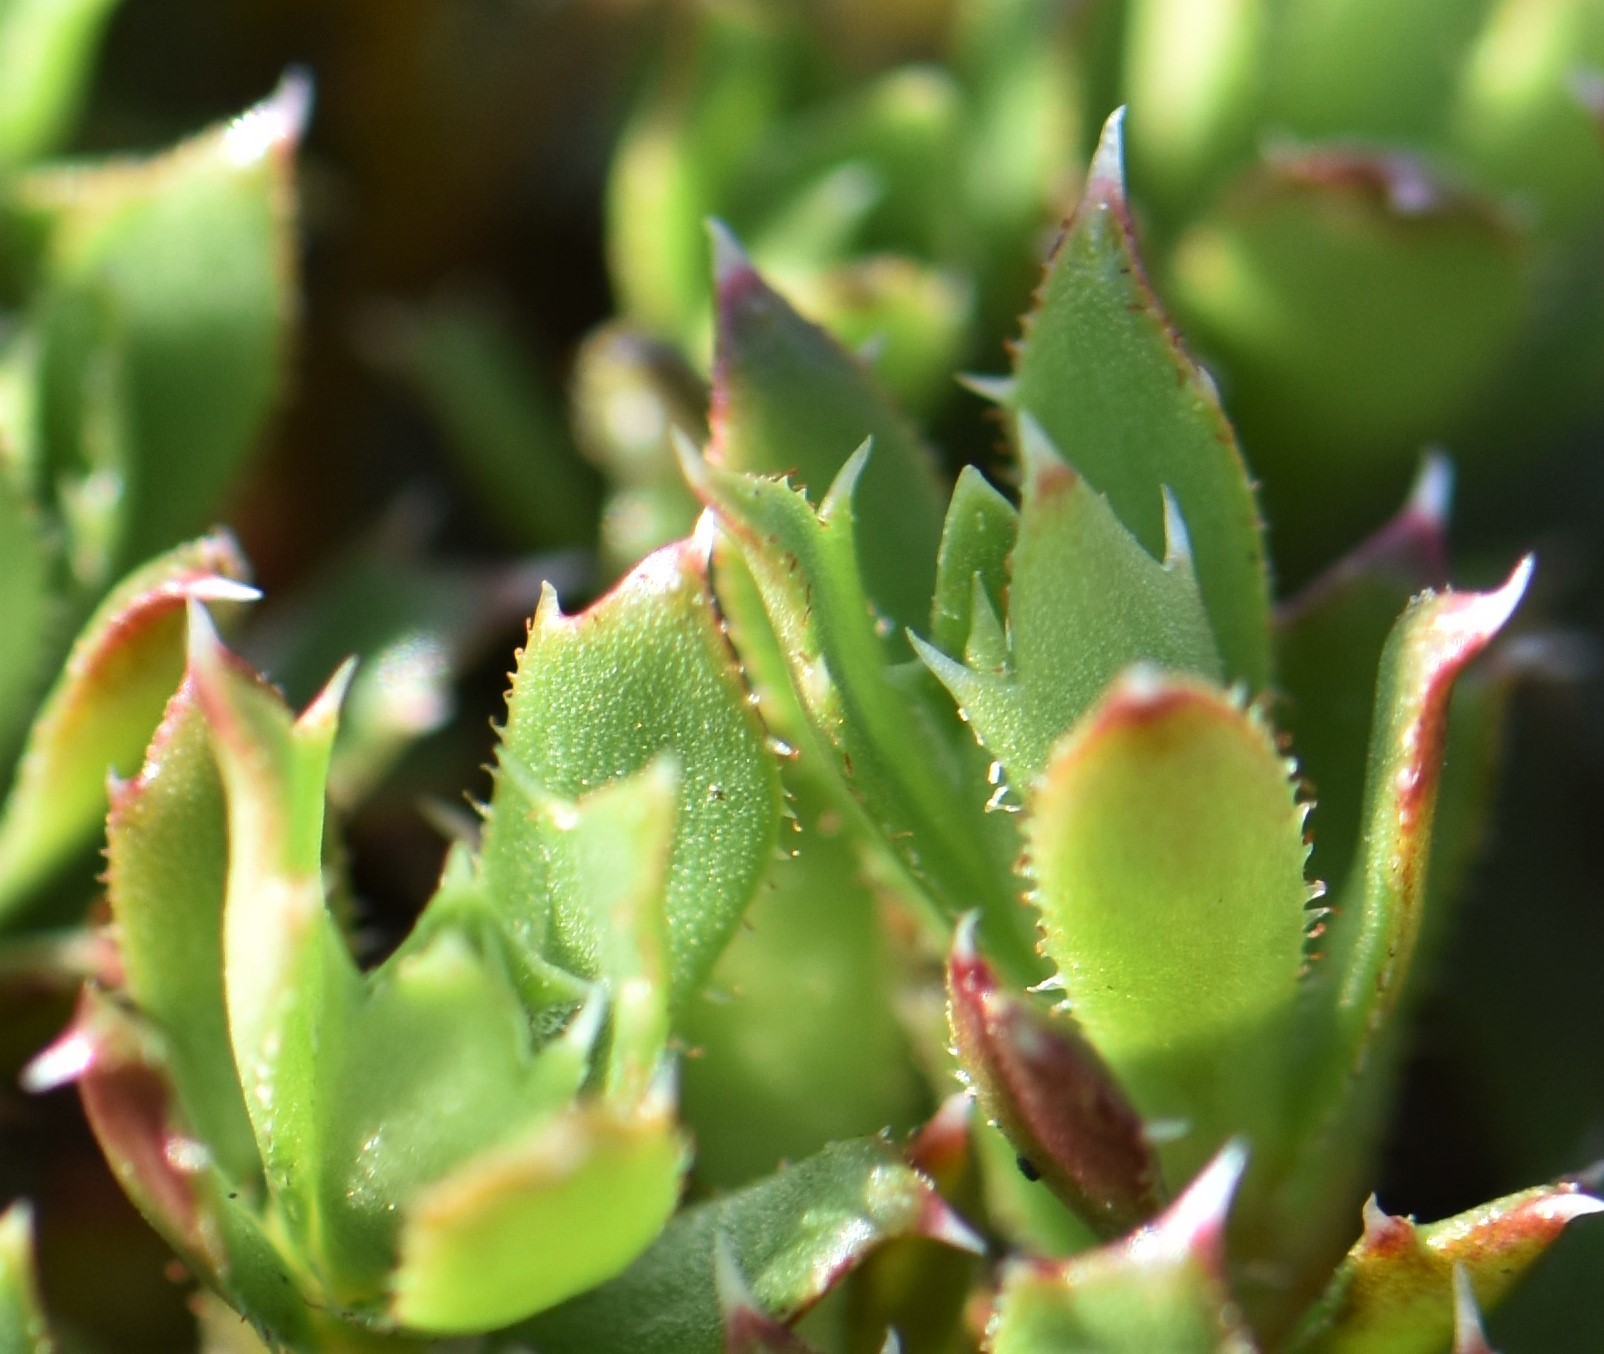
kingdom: Plantae
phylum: Tracheophyta
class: Magnoliopsida
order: Saxifragales
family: Saxifragaceae
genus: Saxifraga
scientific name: Saxifraga tricuspidata
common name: Prickly saxifrage
